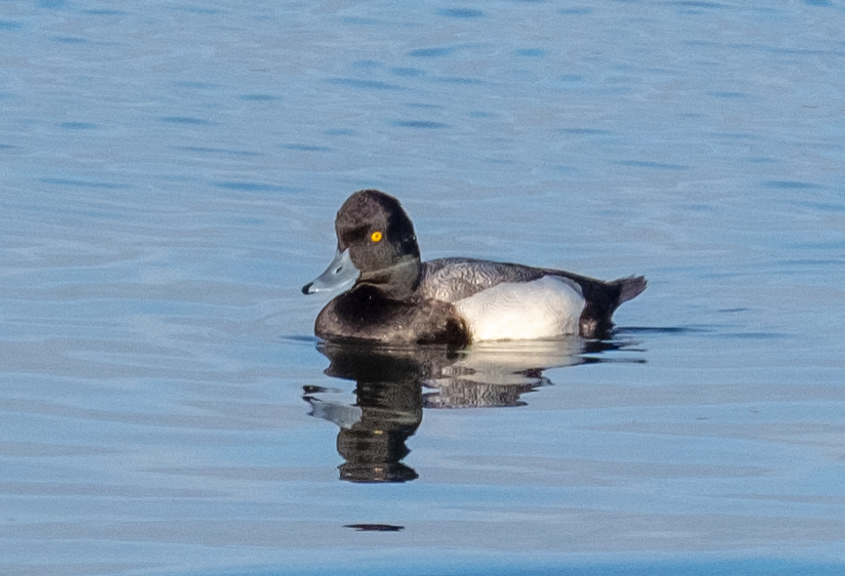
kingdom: Animalia
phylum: Chordata
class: Aves
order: Anseriformes
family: Anatidae
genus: Aythya
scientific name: Aythya affinis
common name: Lesser scaup
